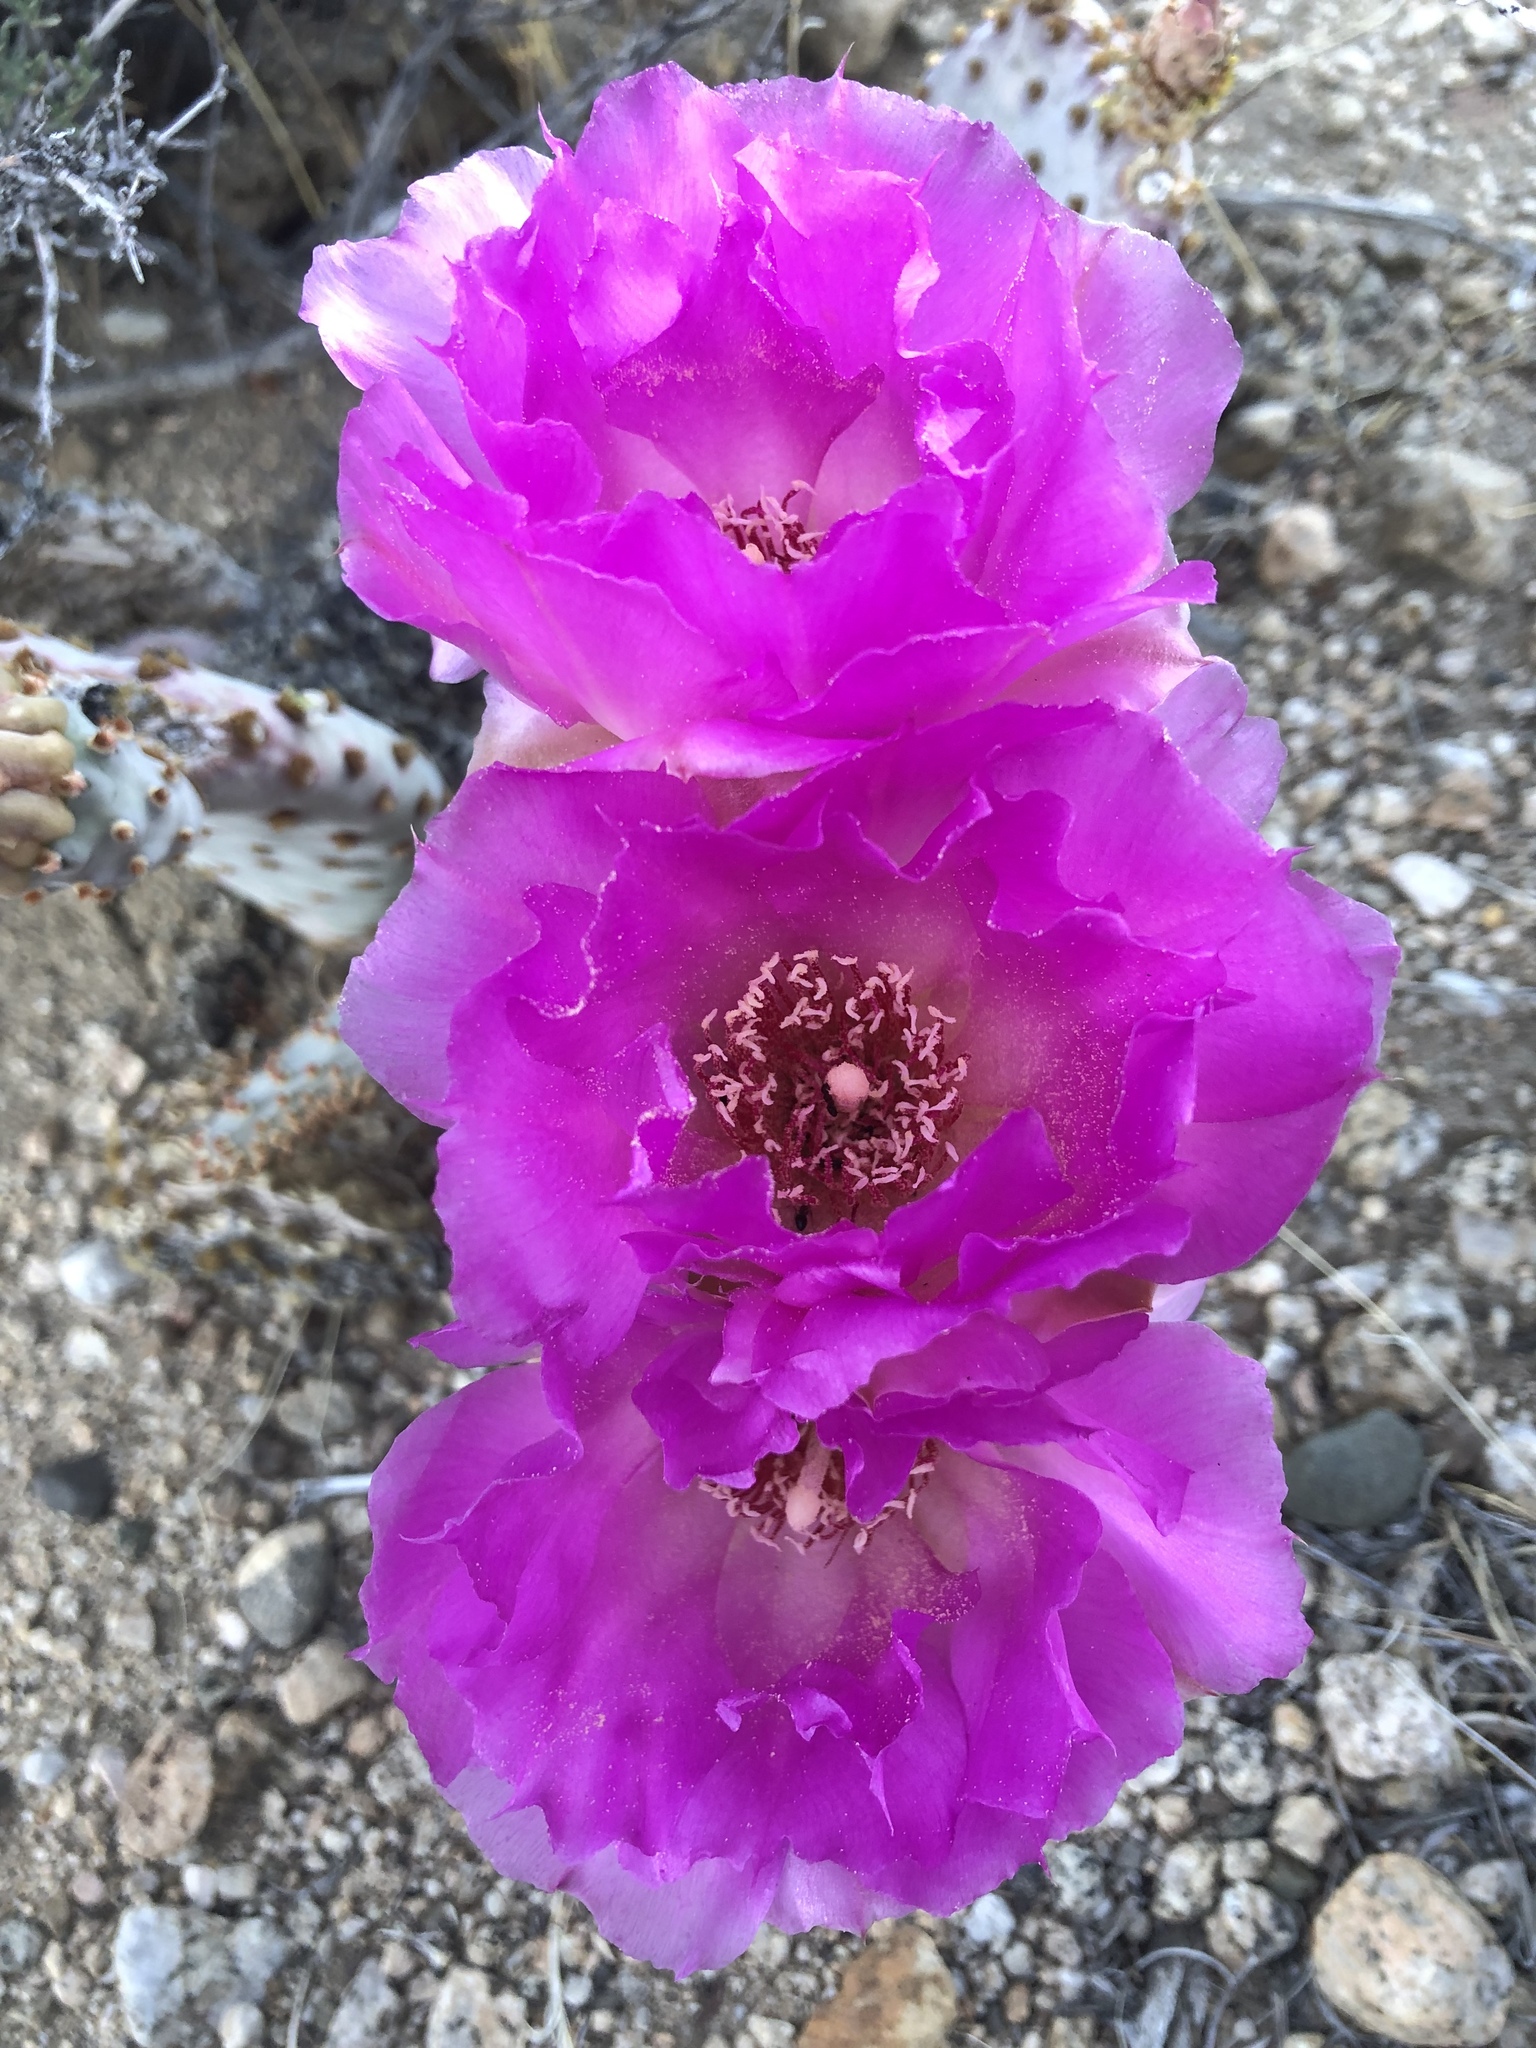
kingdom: Plantae
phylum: Tracheophyta
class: Magnoliopsida
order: Caryophyllales
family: Cactaceae
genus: Opuntia
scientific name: Opuntia basilaris
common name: Beavertail prickly-pear
